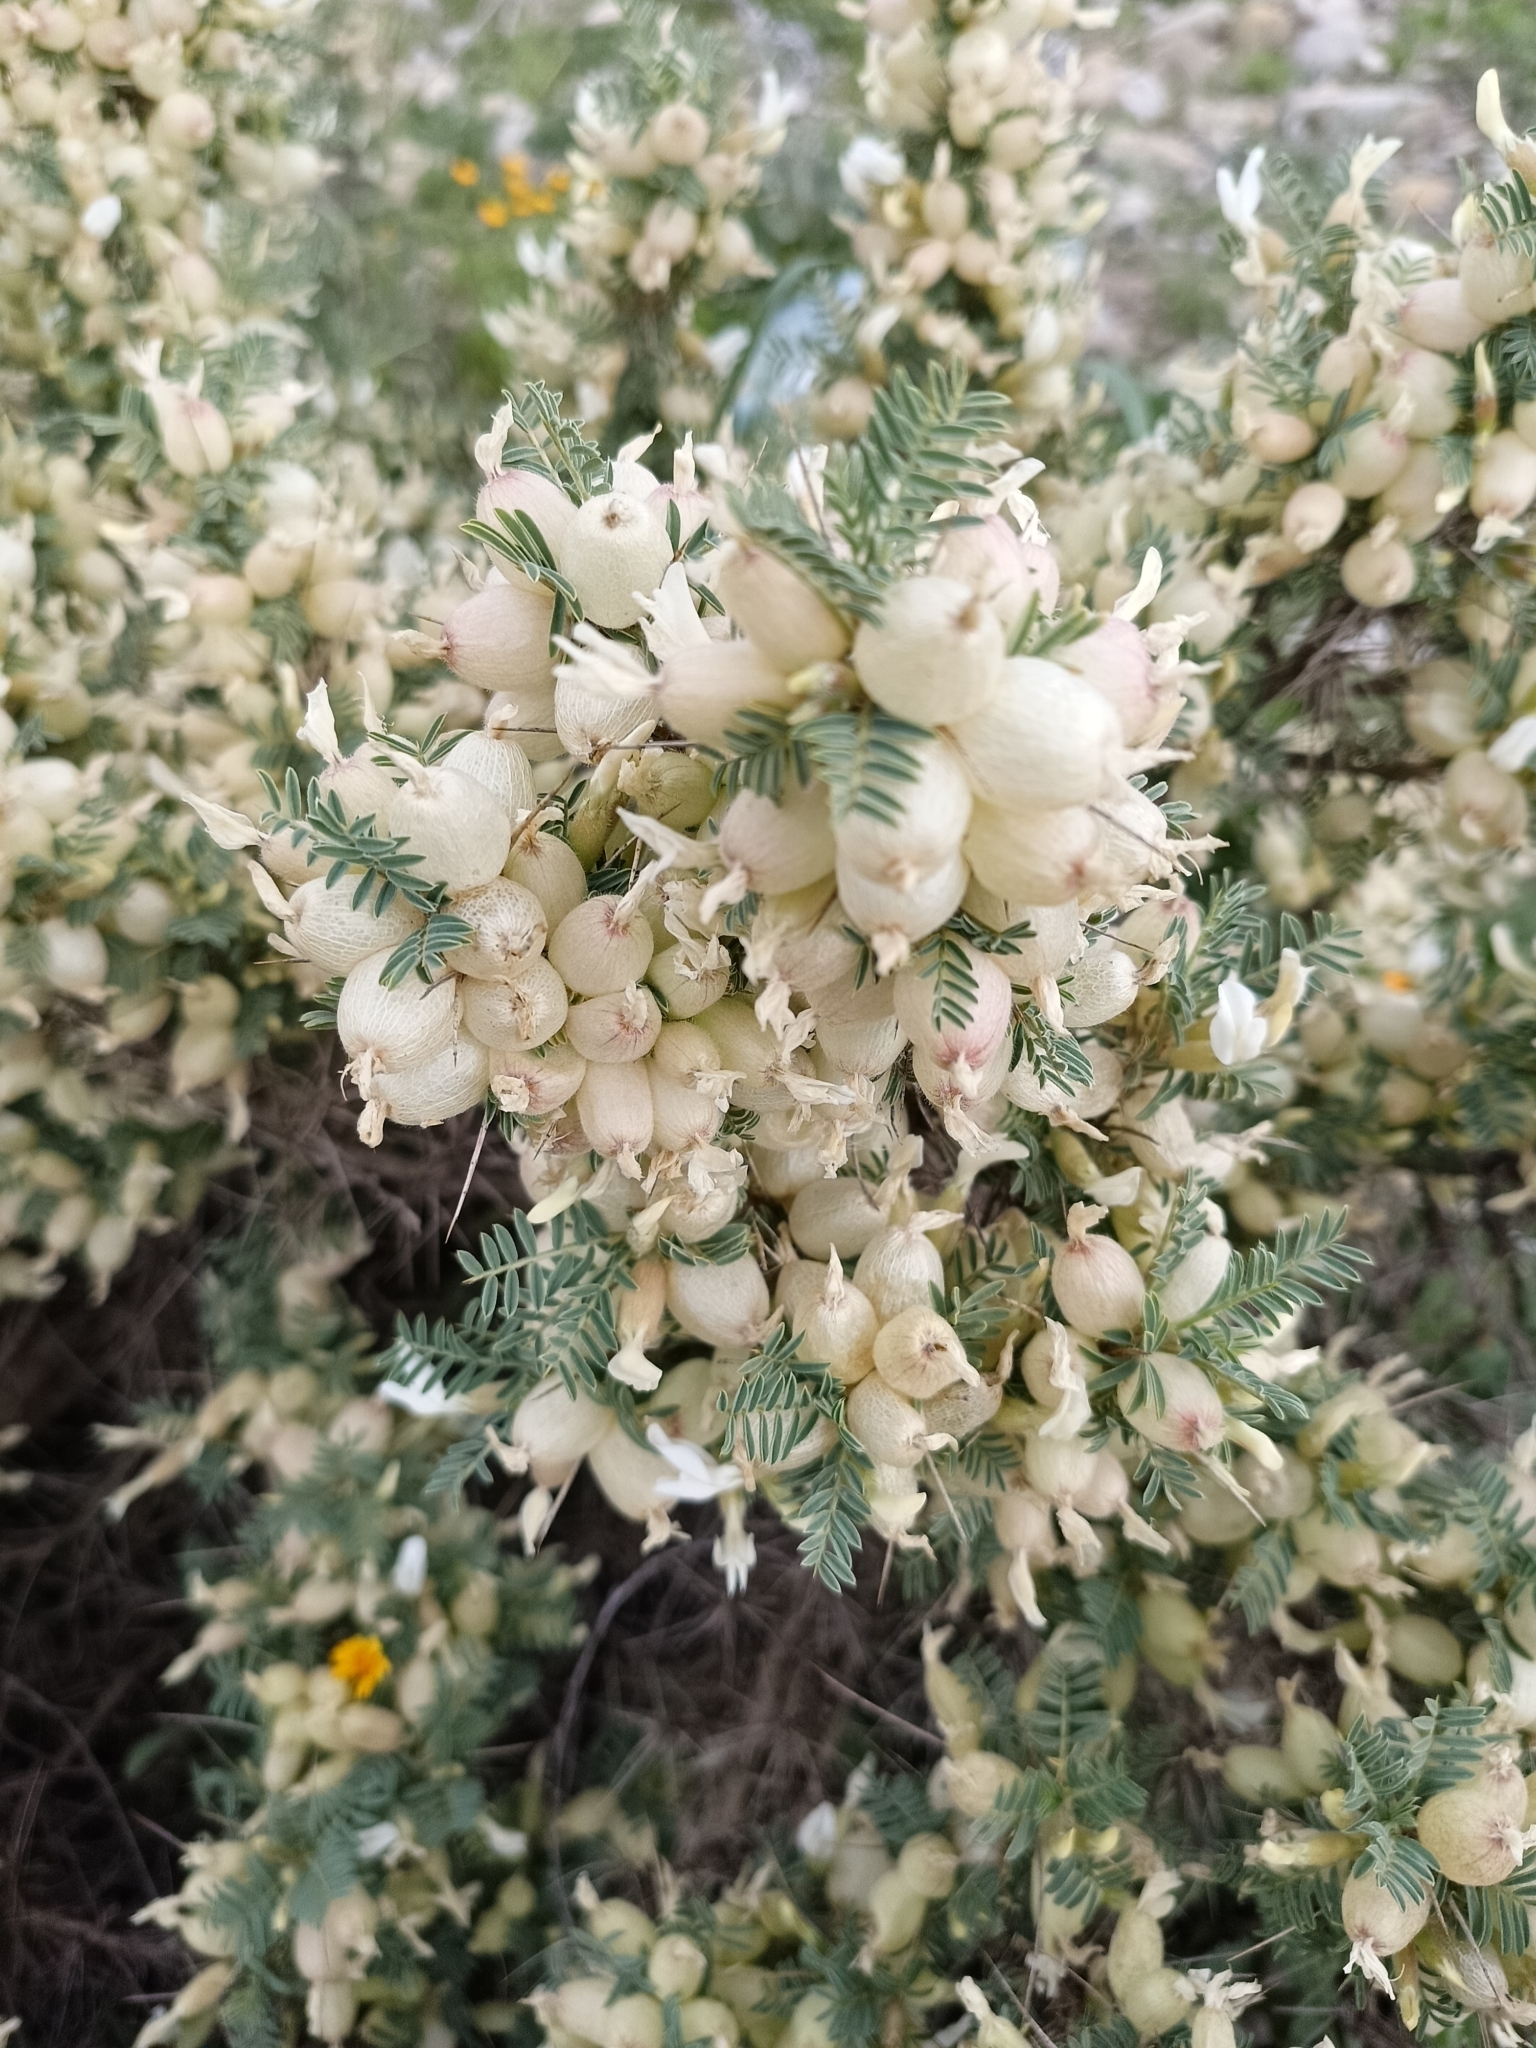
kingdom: Plantae
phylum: Tracheophyta
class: Magnoliopsida
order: Fabales
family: Fabaceae
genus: Astragalus
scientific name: Astragalus armatus
